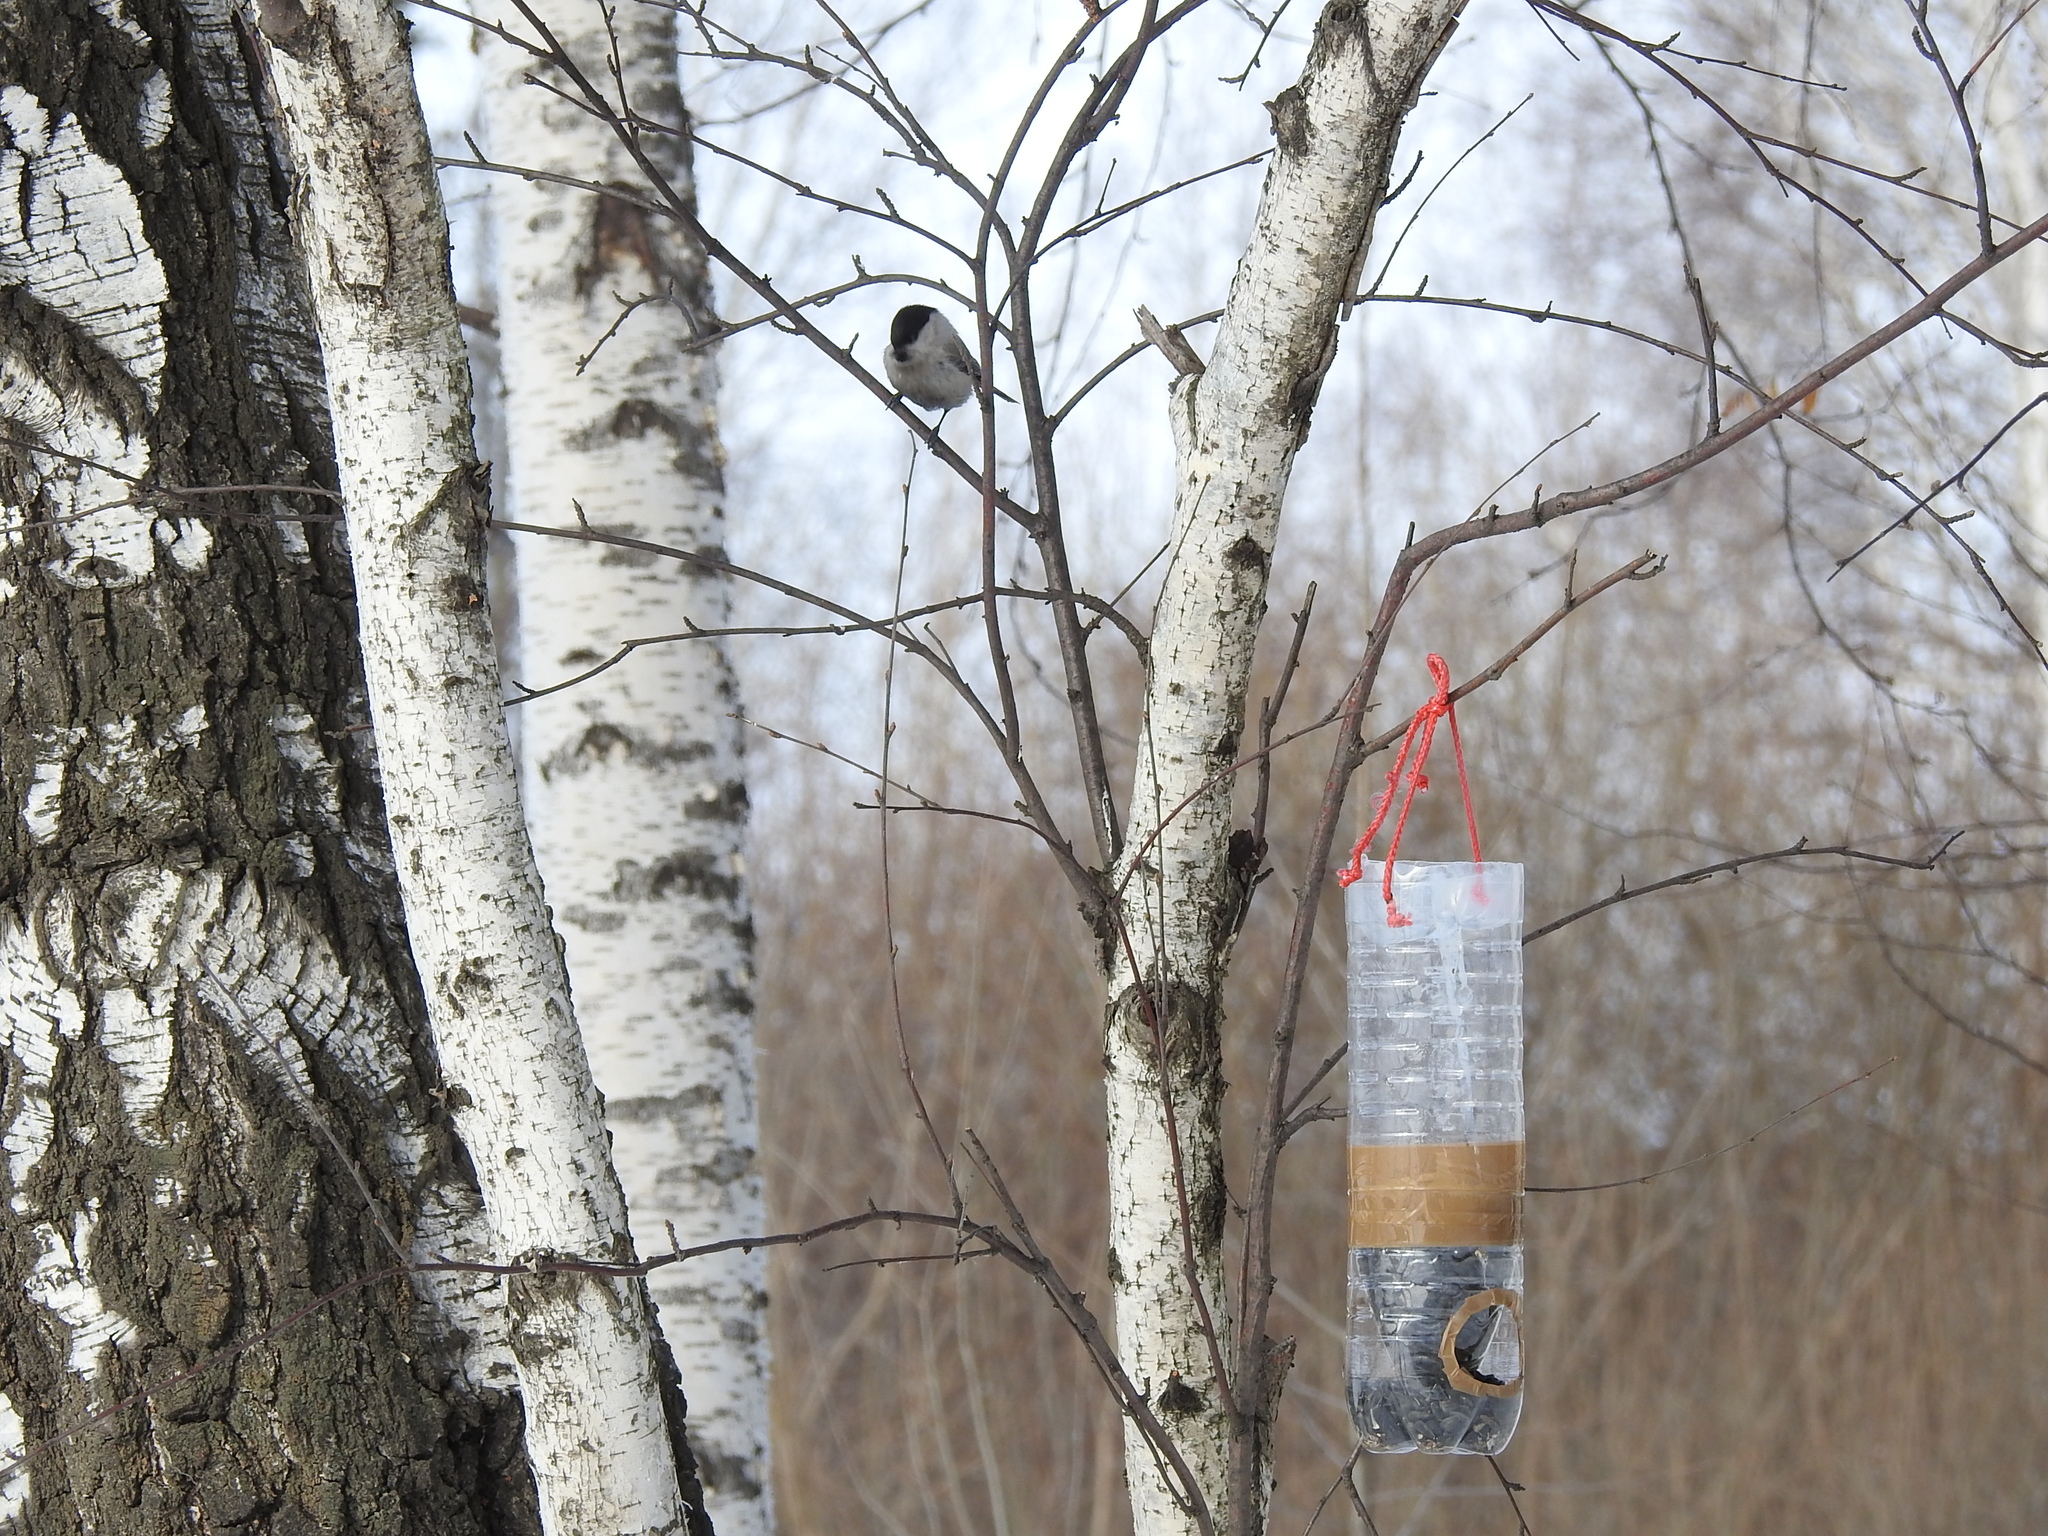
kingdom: Animalia
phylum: Chordata
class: Aves
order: Passeriformes
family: Paridae
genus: Poecile
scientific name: Poecile montanus
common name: Willow tit
